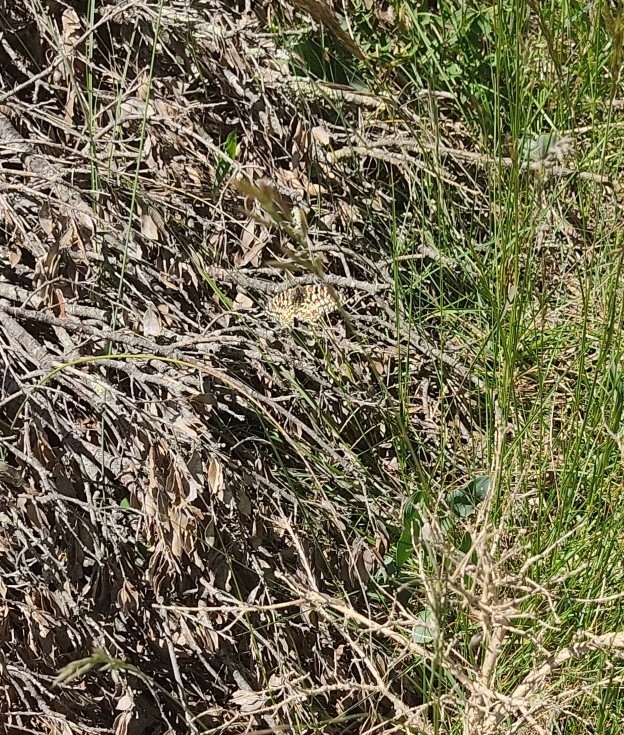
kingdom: Animalia
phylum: Arthropoda
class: Insecta
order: Lepidoptera
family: Papilionidae
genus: Zerynthia
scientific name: Zerynthia rumina
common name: Spanish festoon
